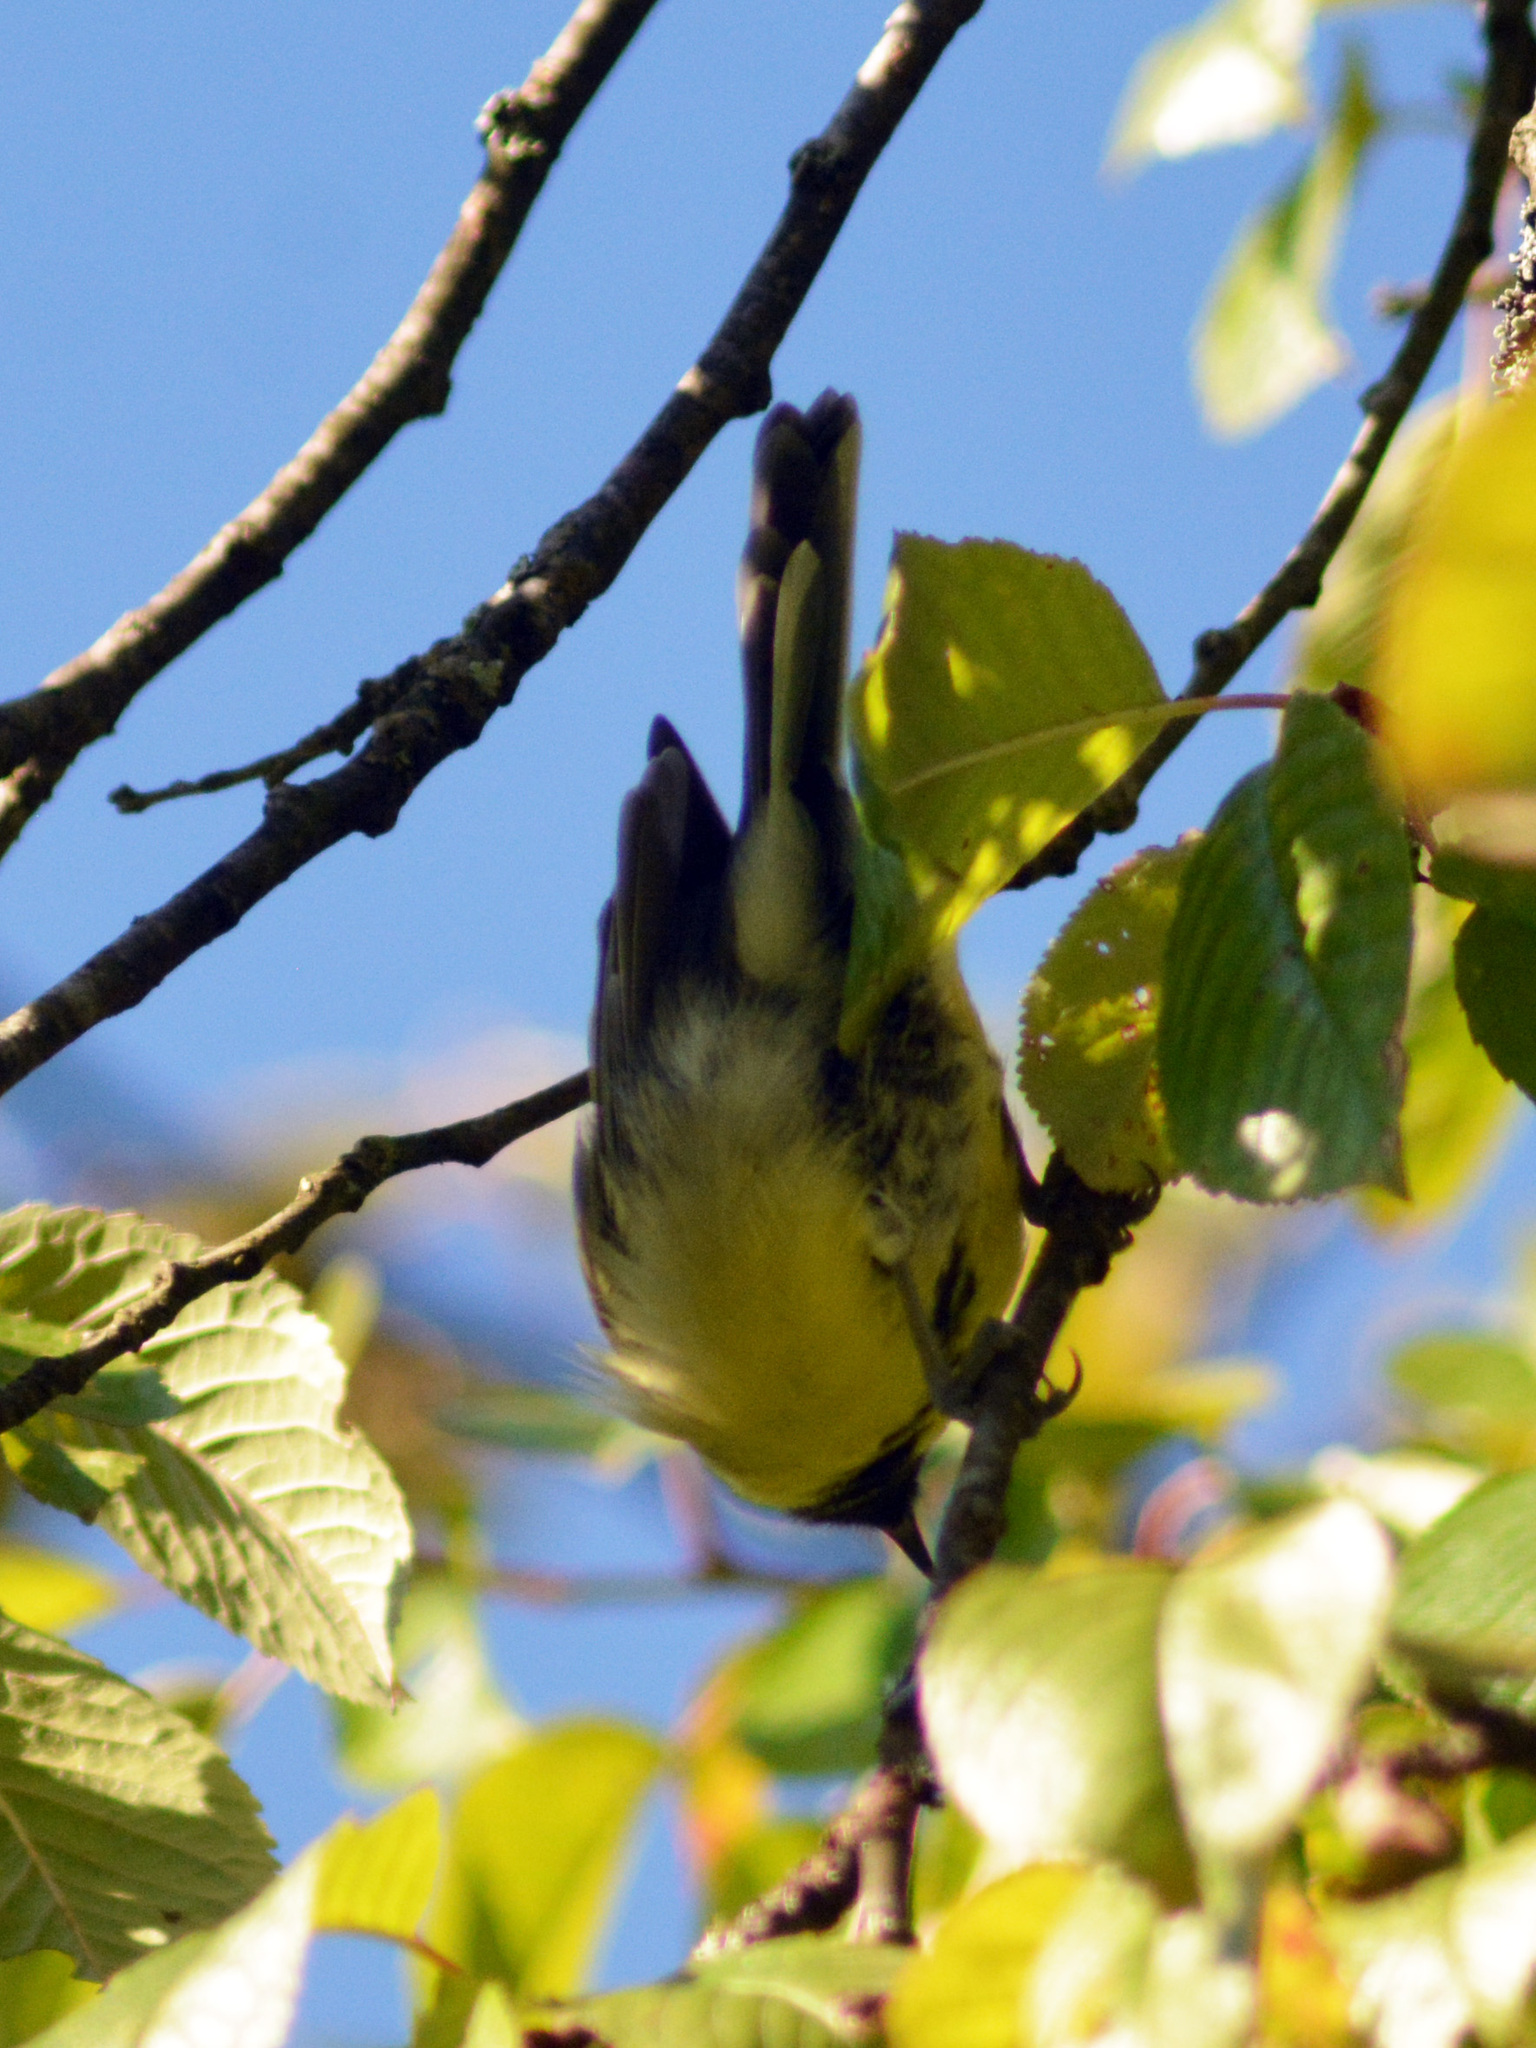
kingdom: Animalia
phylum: Chordata
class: Aves
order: Passeriformes
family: Paridae
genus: Parus
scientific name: Parus major
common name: Great tit
